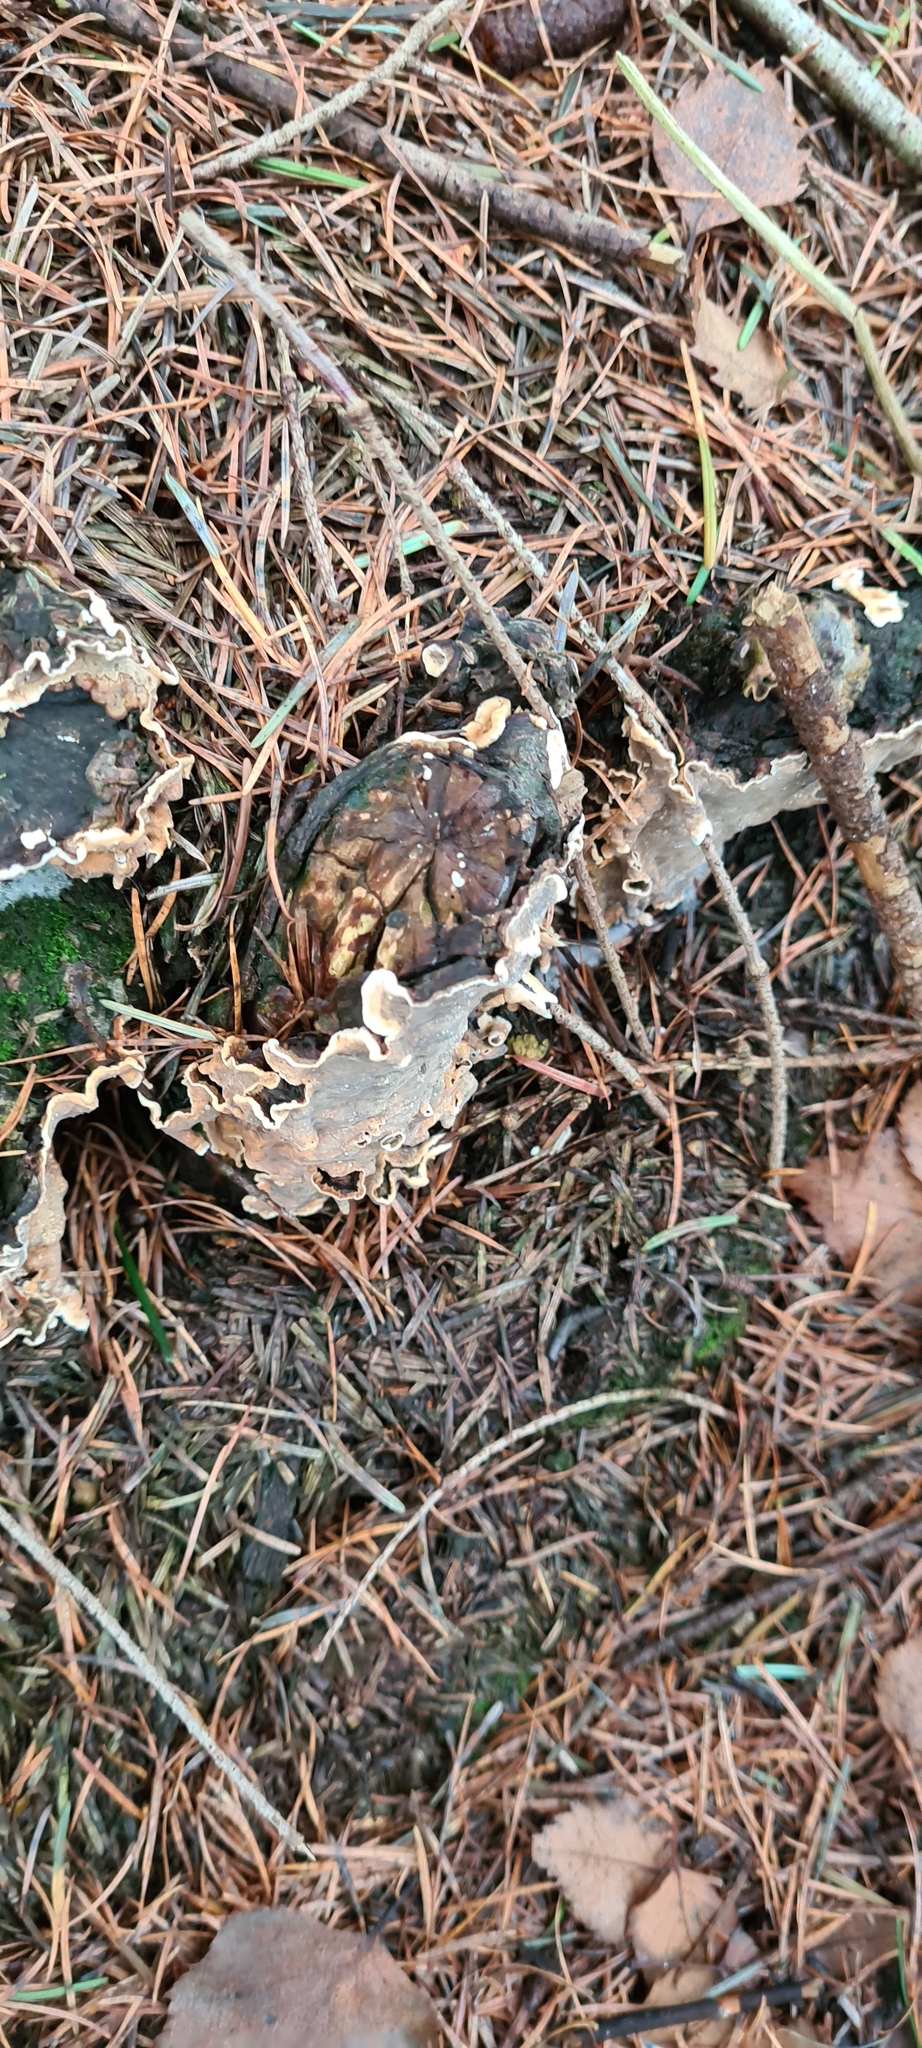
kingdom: Fungi
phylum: Basidiomycota
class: Agaricomycetes
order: Russulales
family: Stereaceae
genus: Stereum
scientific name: Stereum rugosum
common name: Bleeding broadleaf crust
